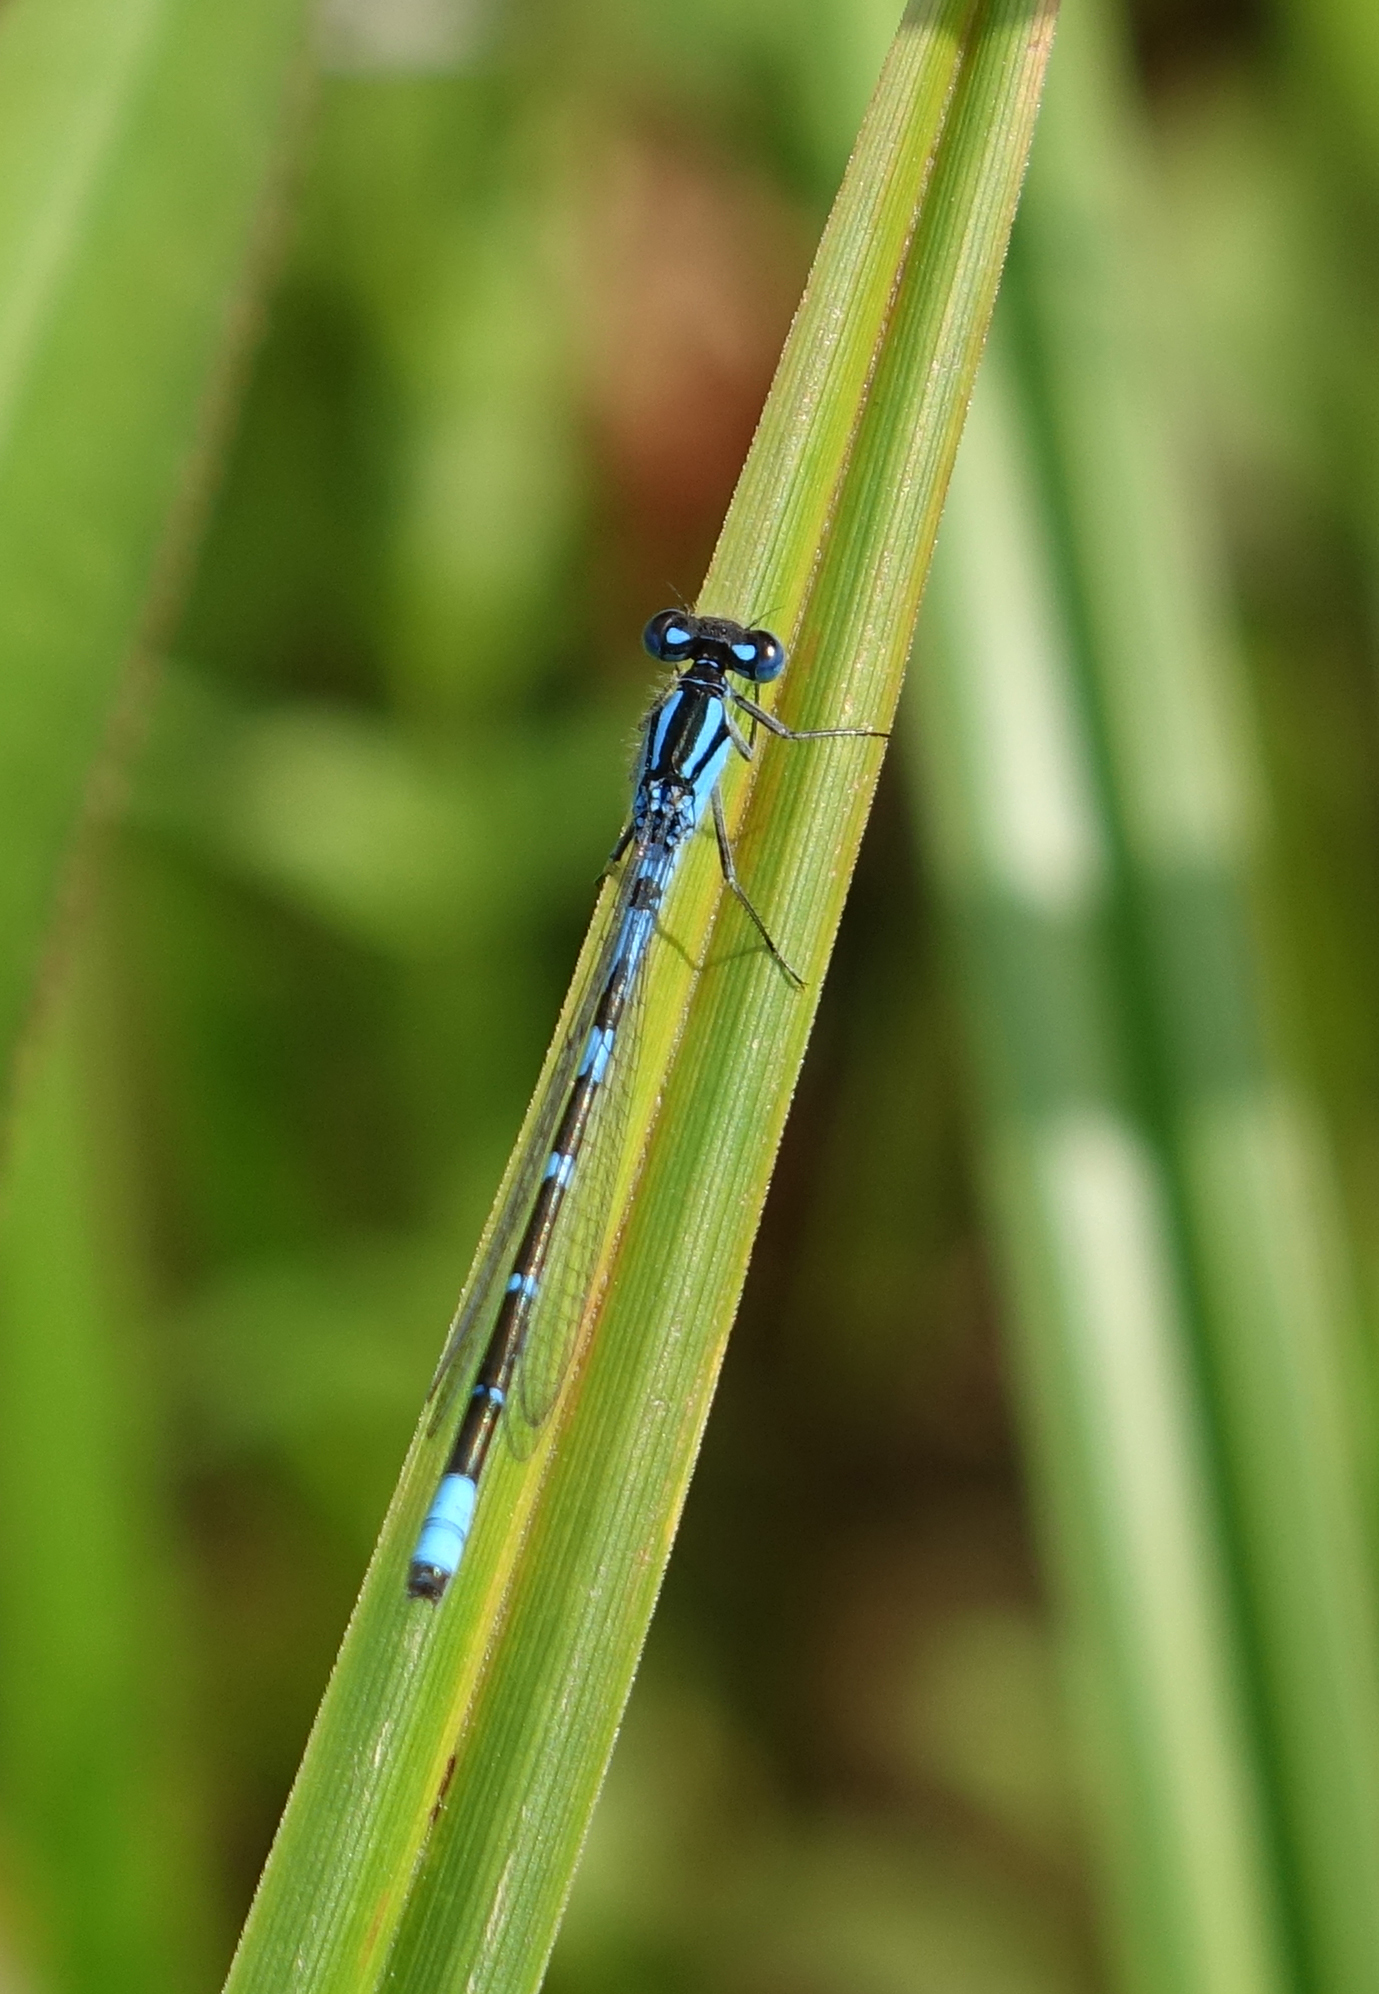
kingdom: Animalia
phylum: Arthropoda
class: Insecta
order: Odonata
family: Coenagrionidae
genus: Enallagma
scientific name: Enallagma cyathigerum
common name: Common blue damselfly
